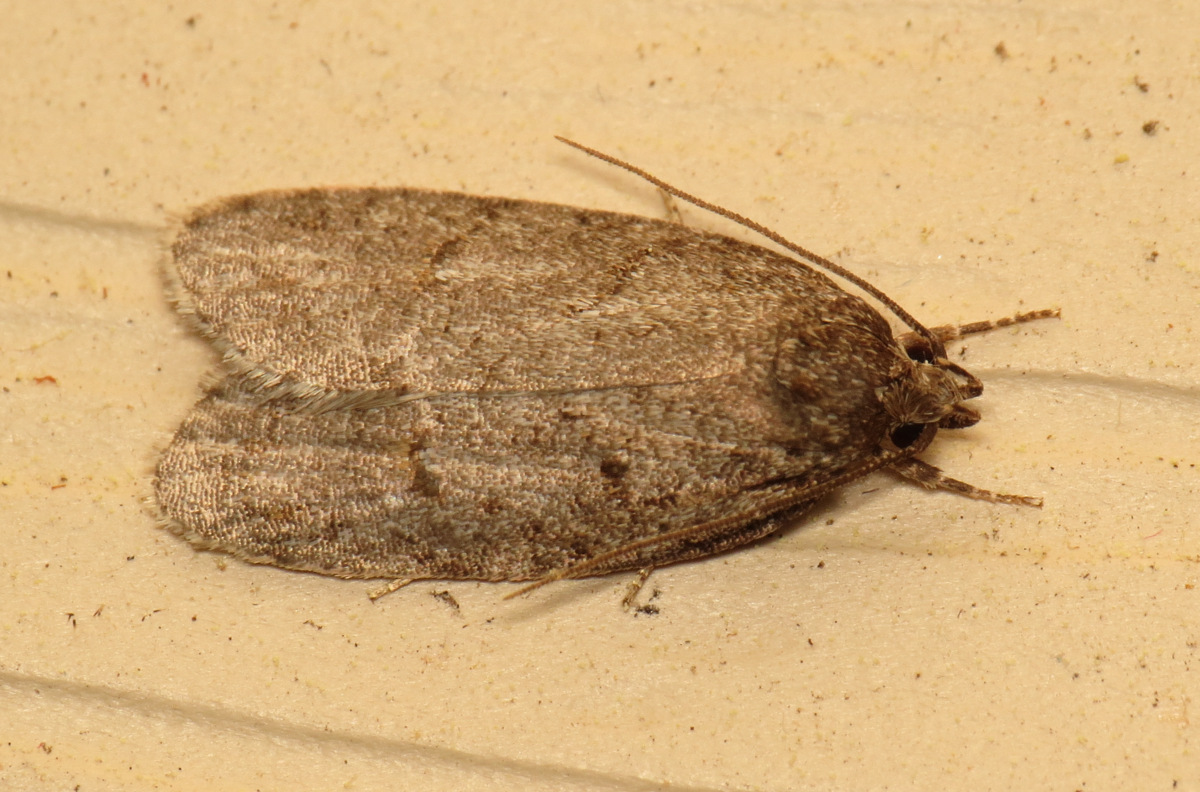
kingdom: Animalia
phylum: Arthropoda
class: Insecta
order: Lepidoptera
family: Depressariidae
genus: Bibarrambla
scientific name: Bibarrambla allenella
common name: Bog bibarrambla moth
